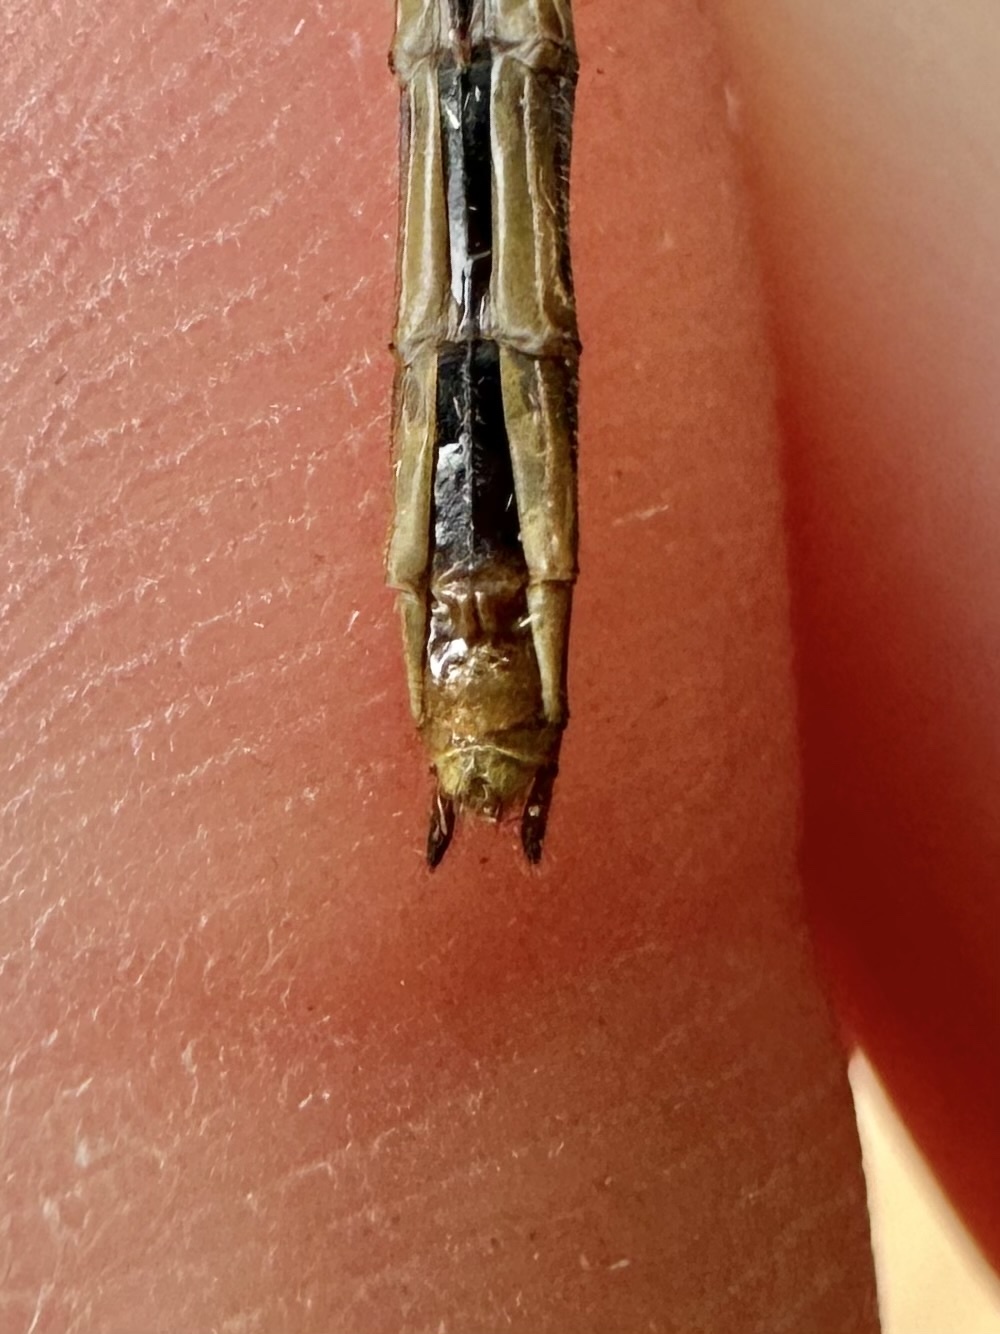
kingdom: Animalia
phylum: Arthropoda
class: Insecta
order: Odonata
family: Libellulidae
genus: Sympetrum
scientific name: Sympetrum obtrusum
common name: White-faced meadowhawk
